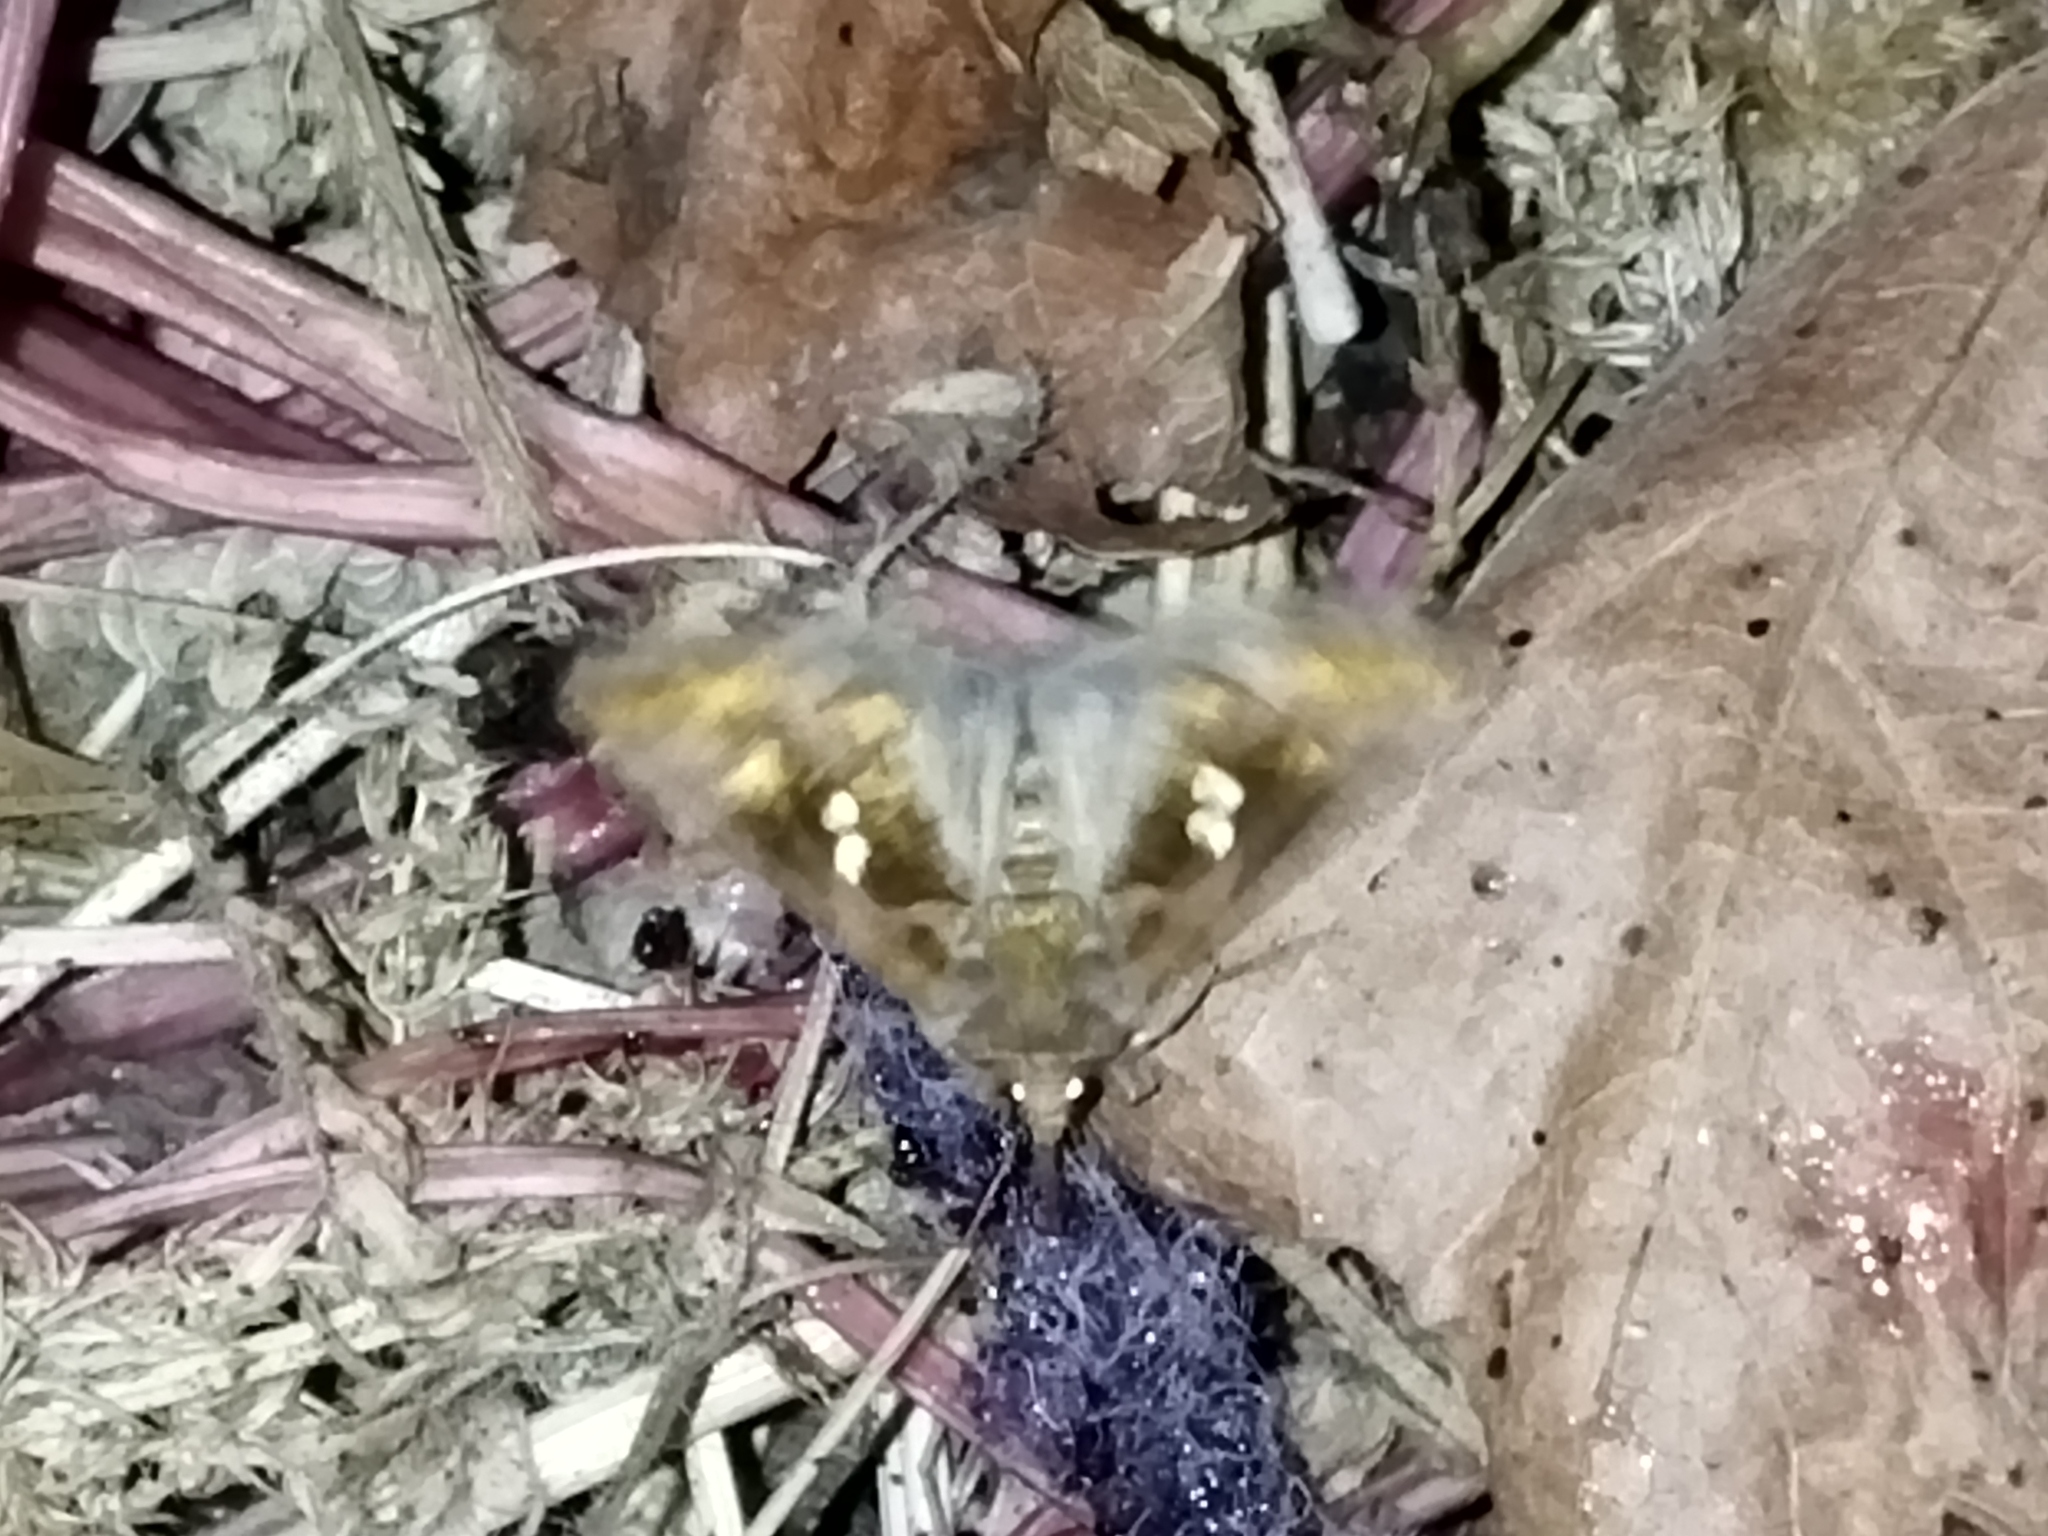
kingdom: Animalia
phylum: Arthropoda
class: Insecta
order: Lepidoptera
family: Noctuidae
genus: Chrysodeixis
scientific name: Chrysodeixis chalcites
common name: Golden twin-spot
